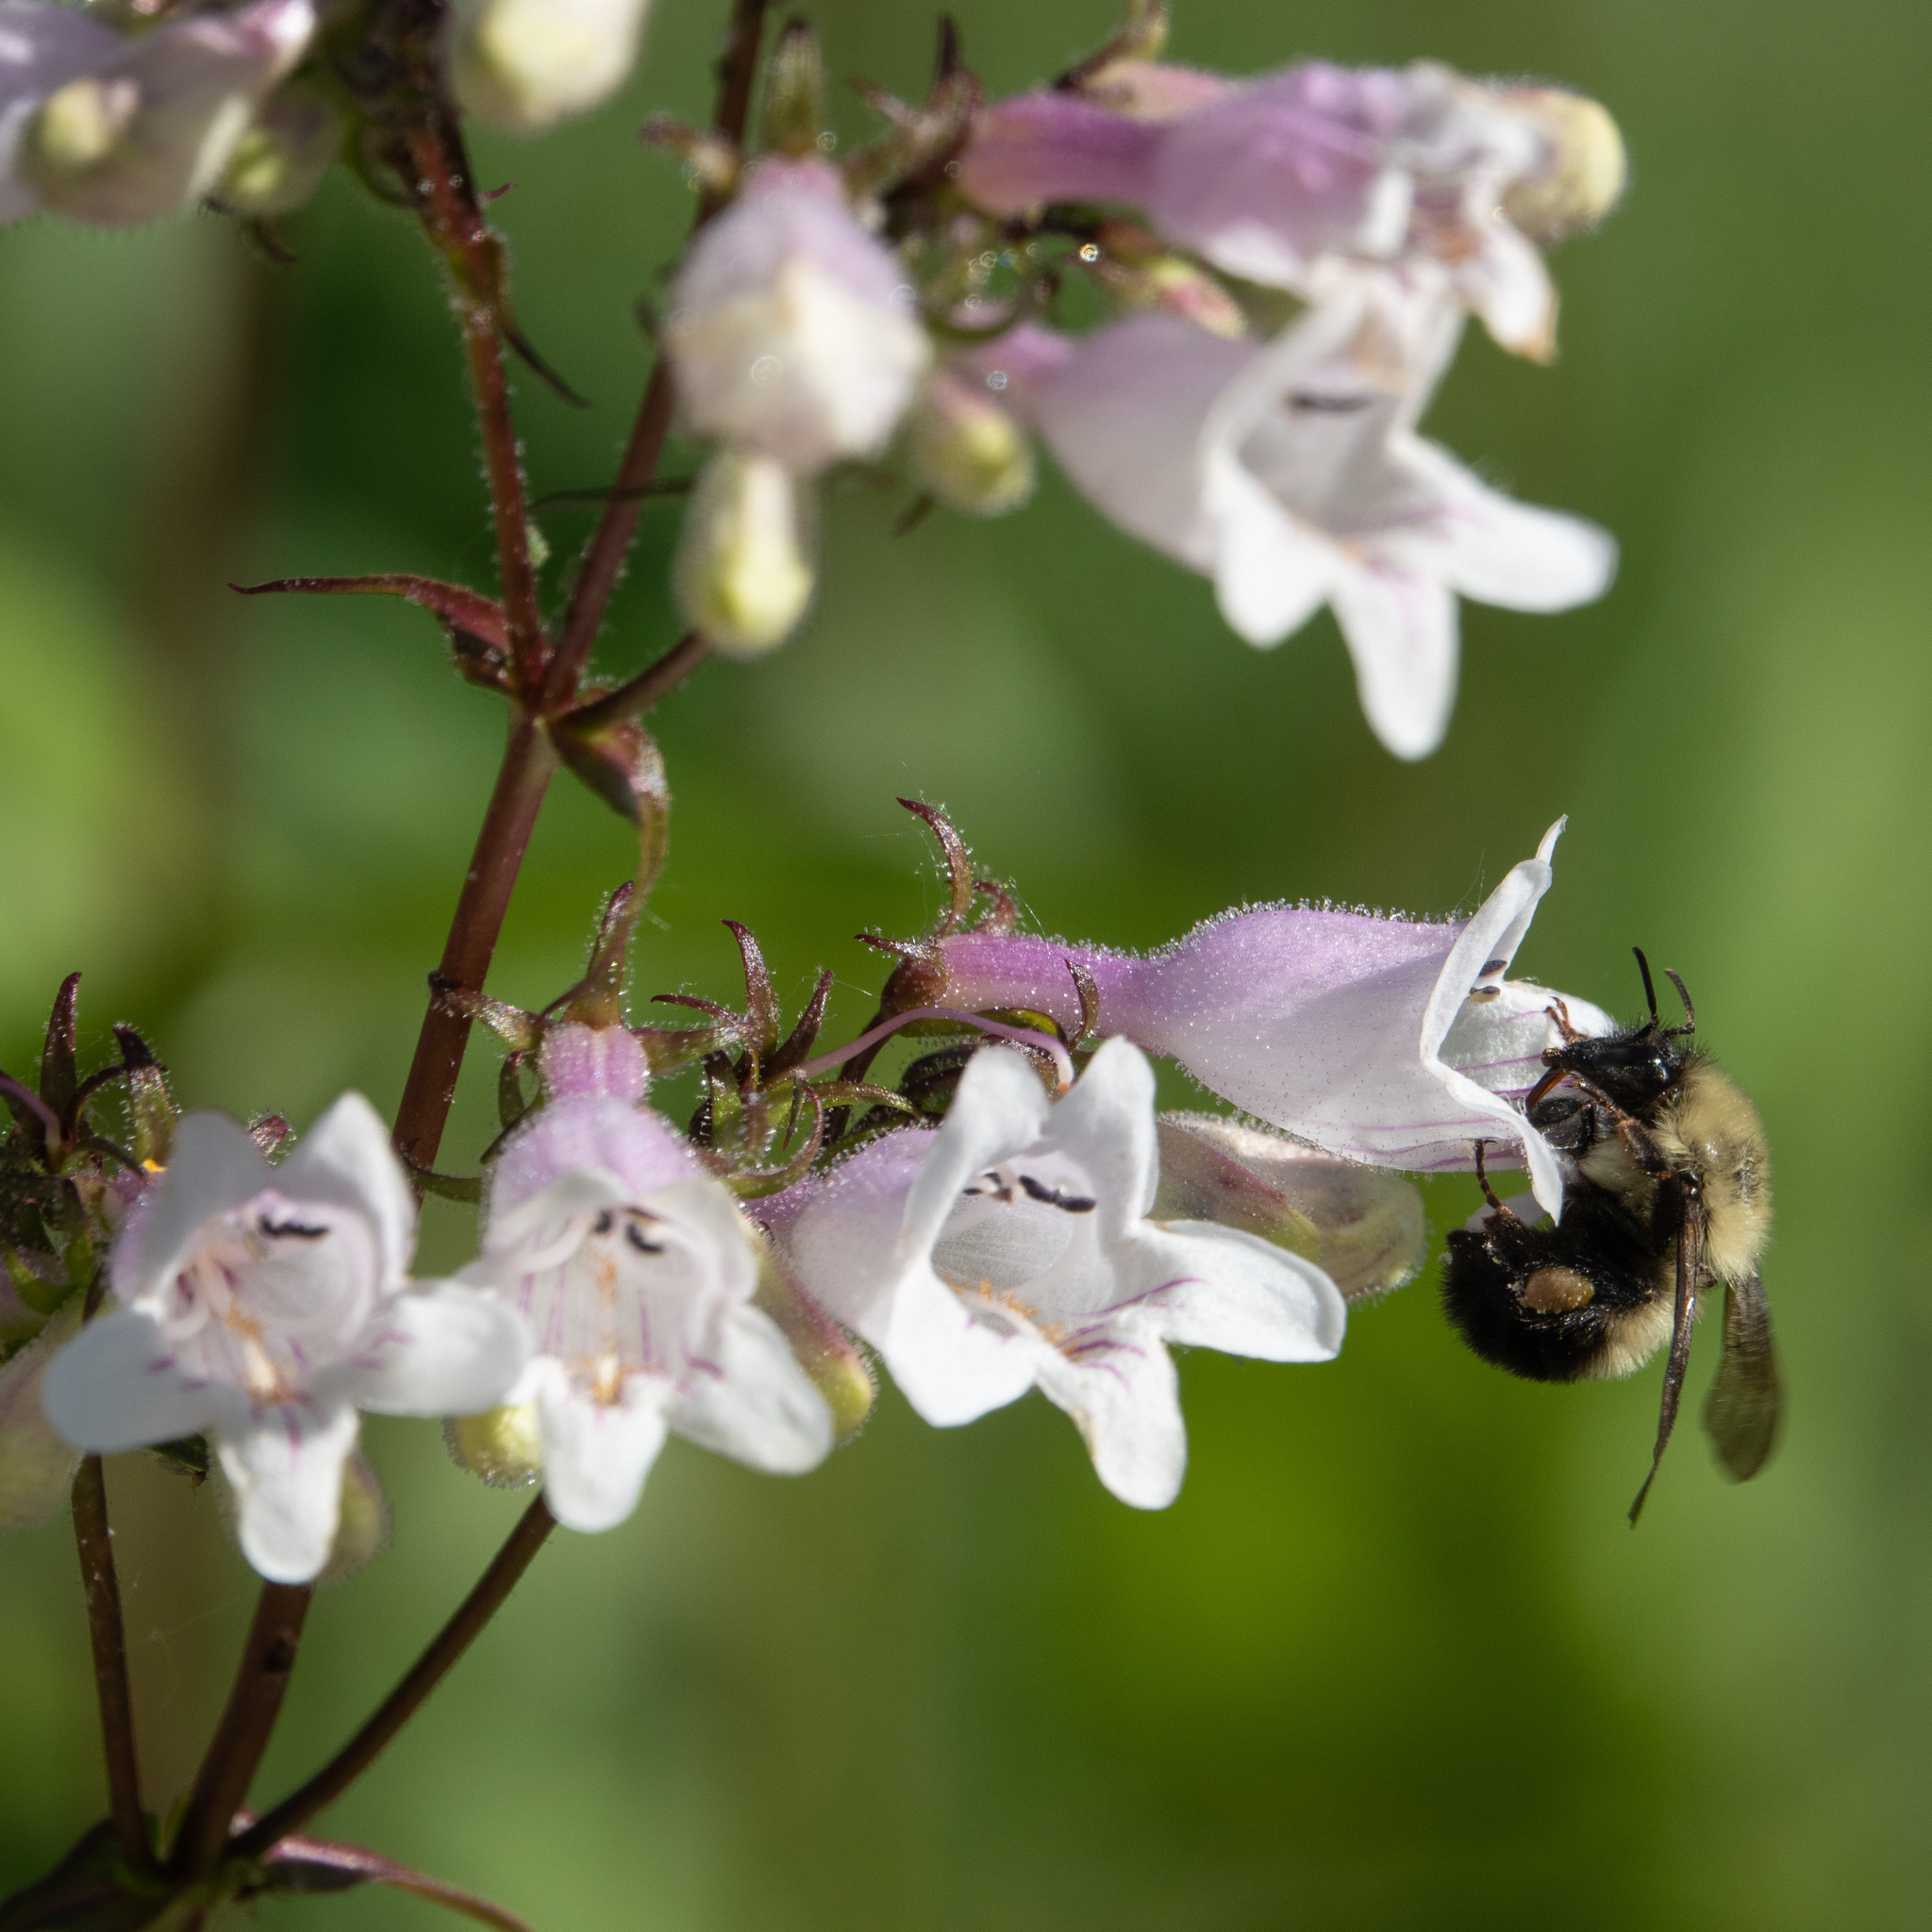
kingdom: Animalia
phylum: Arthropoda
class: Insecta
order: Hymenoptera
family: Apidae
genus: Bombus
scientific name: Bombus bimaculatus
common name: Two-spotted bumble bee
